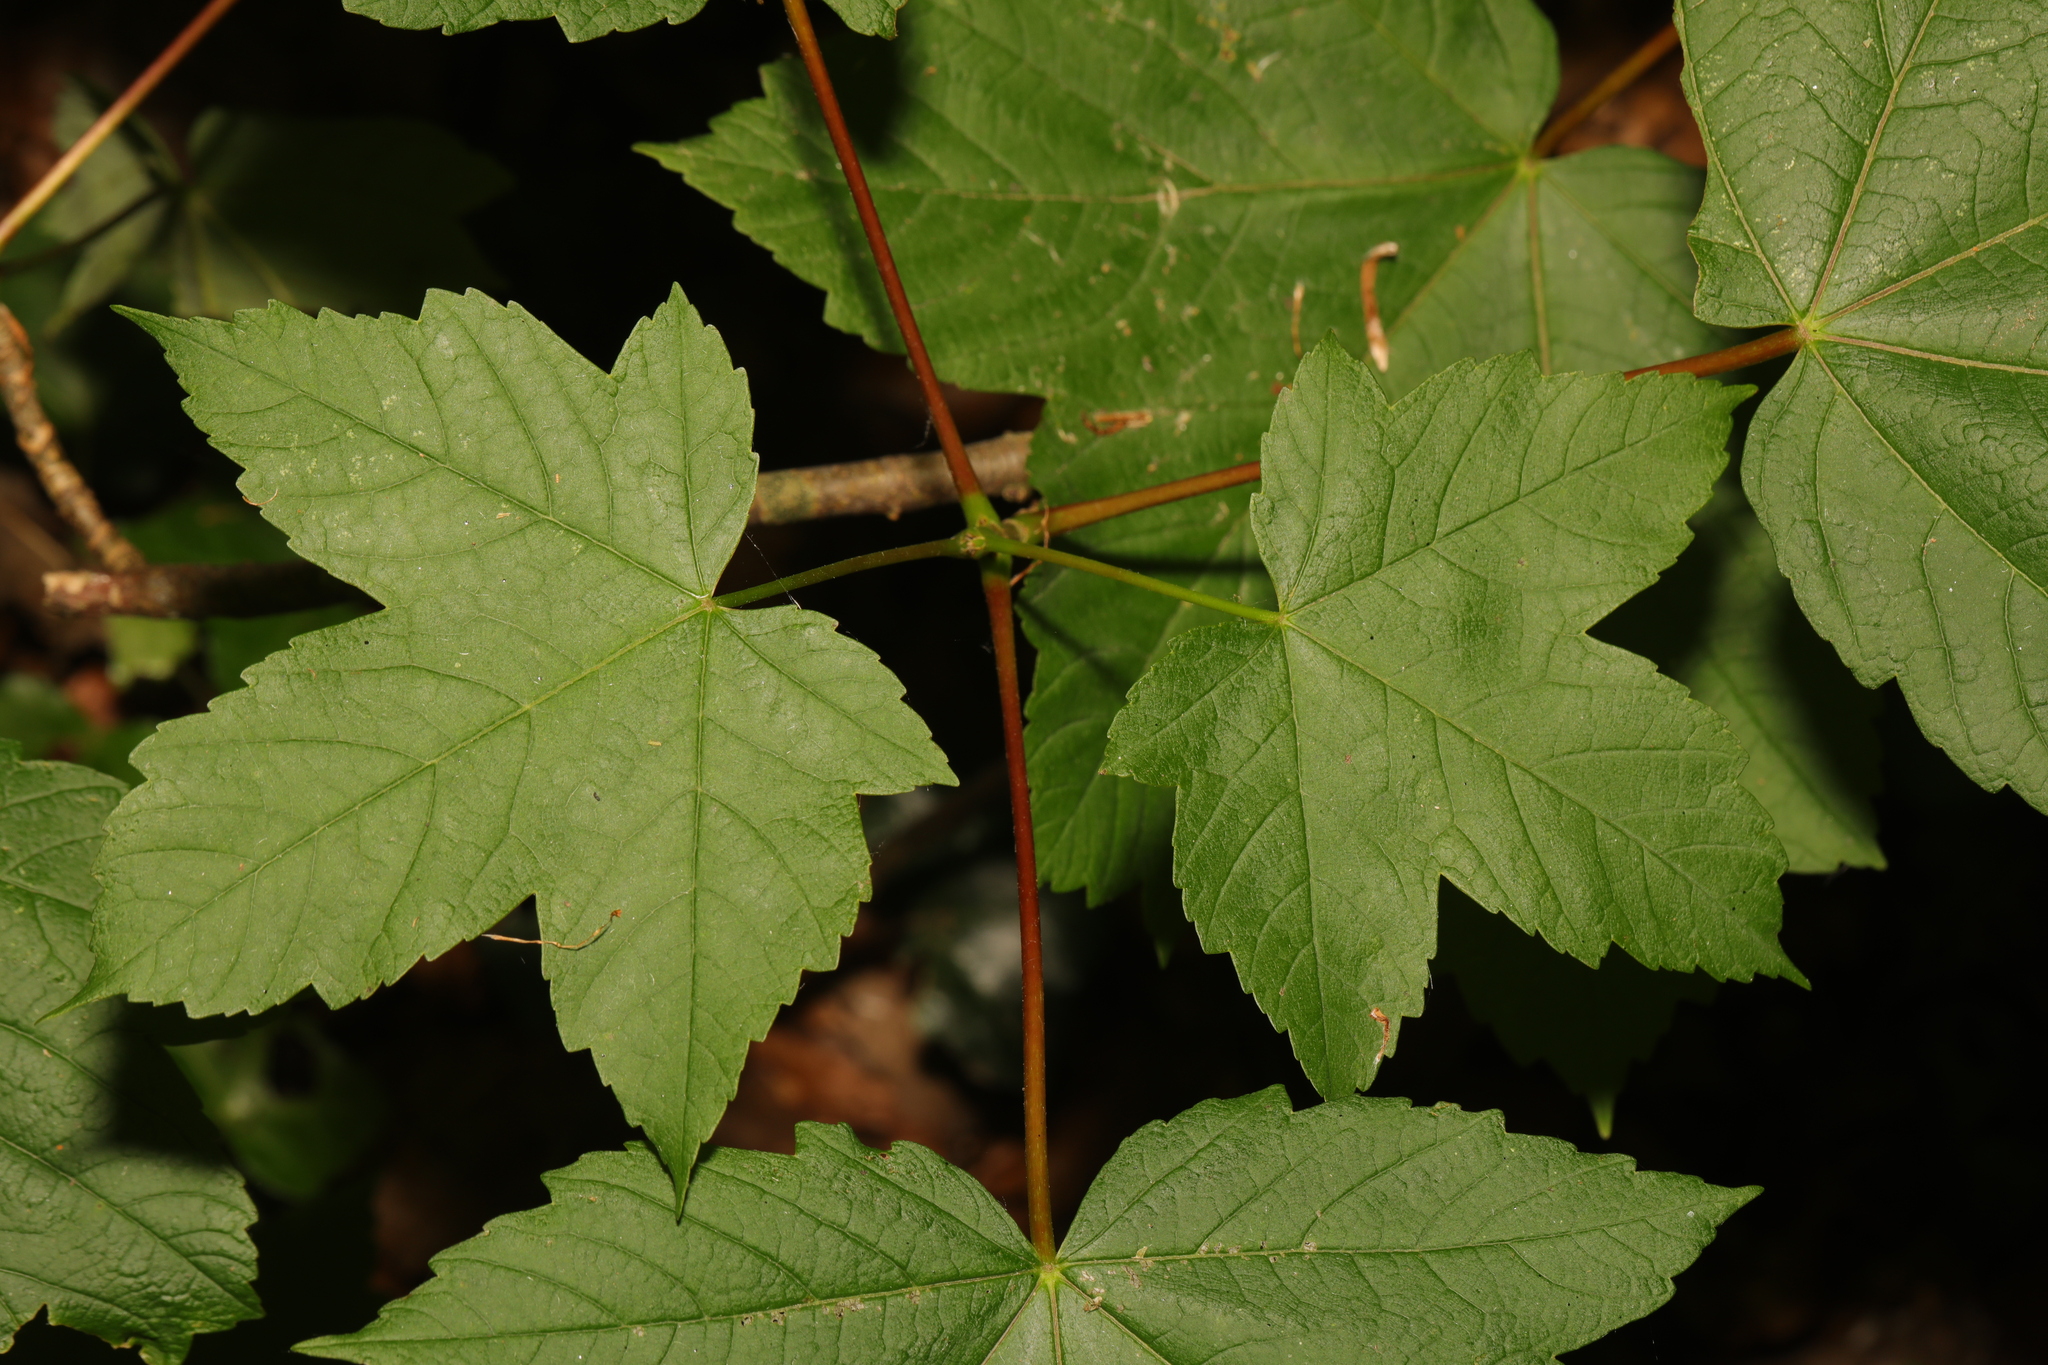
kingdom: Plantae
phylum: Tracheophyta
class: Magnoliopsida
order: Sapindales
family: Sapindaceae
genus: Acer
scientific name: Acer pseudoplatanus
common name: Sycamore
